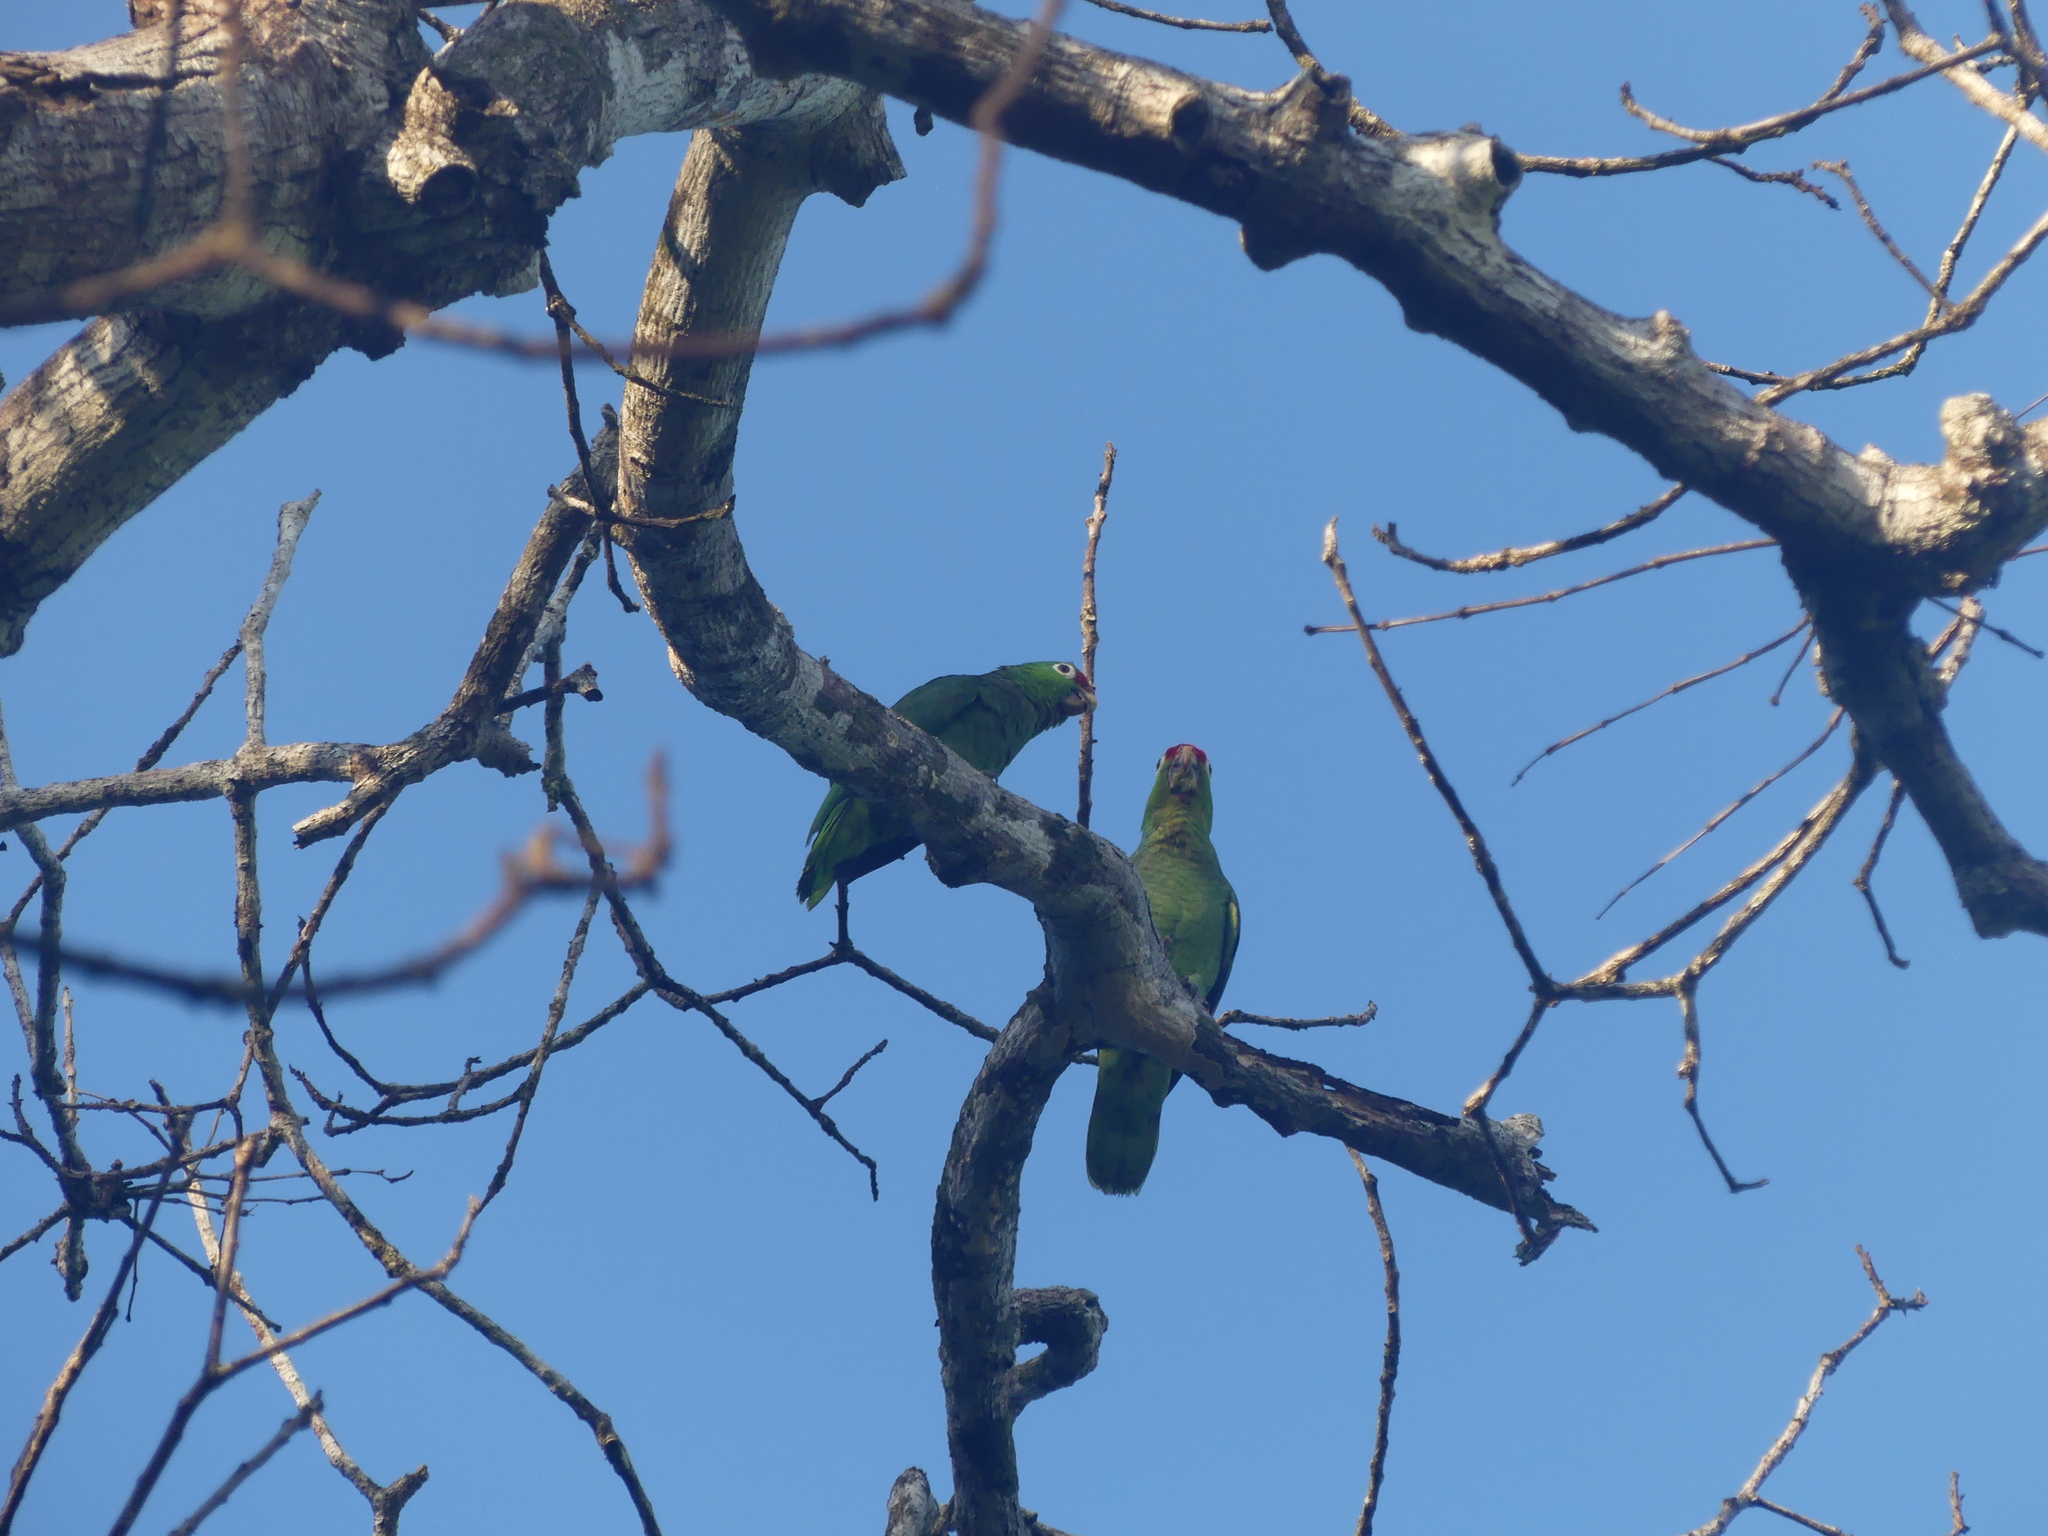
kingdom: Animalia
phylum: Chordata
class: Aves
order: Psittaciformes
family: Psittacidae
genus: Amazona
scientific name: Amazona autumnalis
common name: Red-lored amazon
